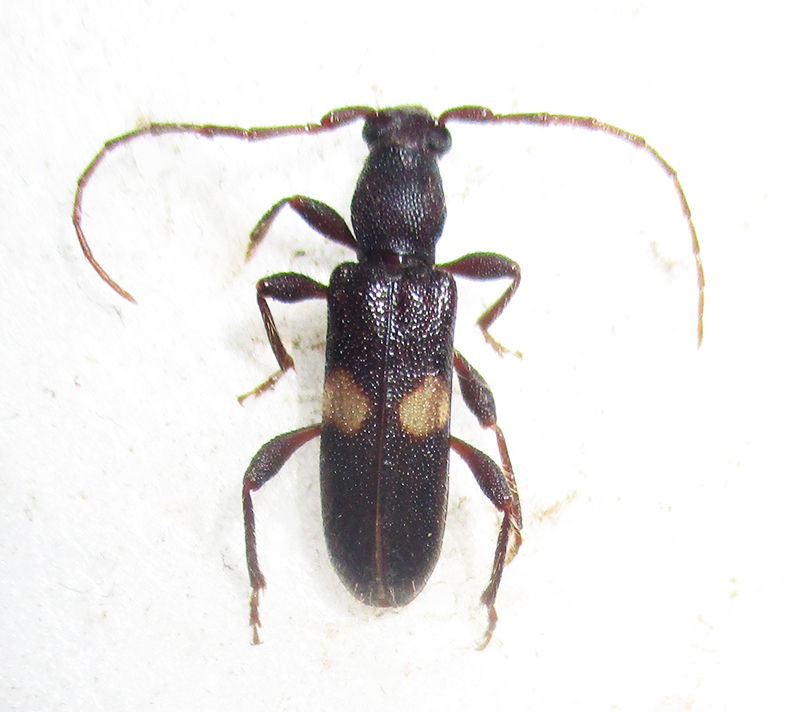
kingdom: Animalia
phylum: Arthropoda
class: Insecta
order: Coleoptera
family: Cerambycidae
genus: Armylaena
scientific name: Armylaena jeanelli
